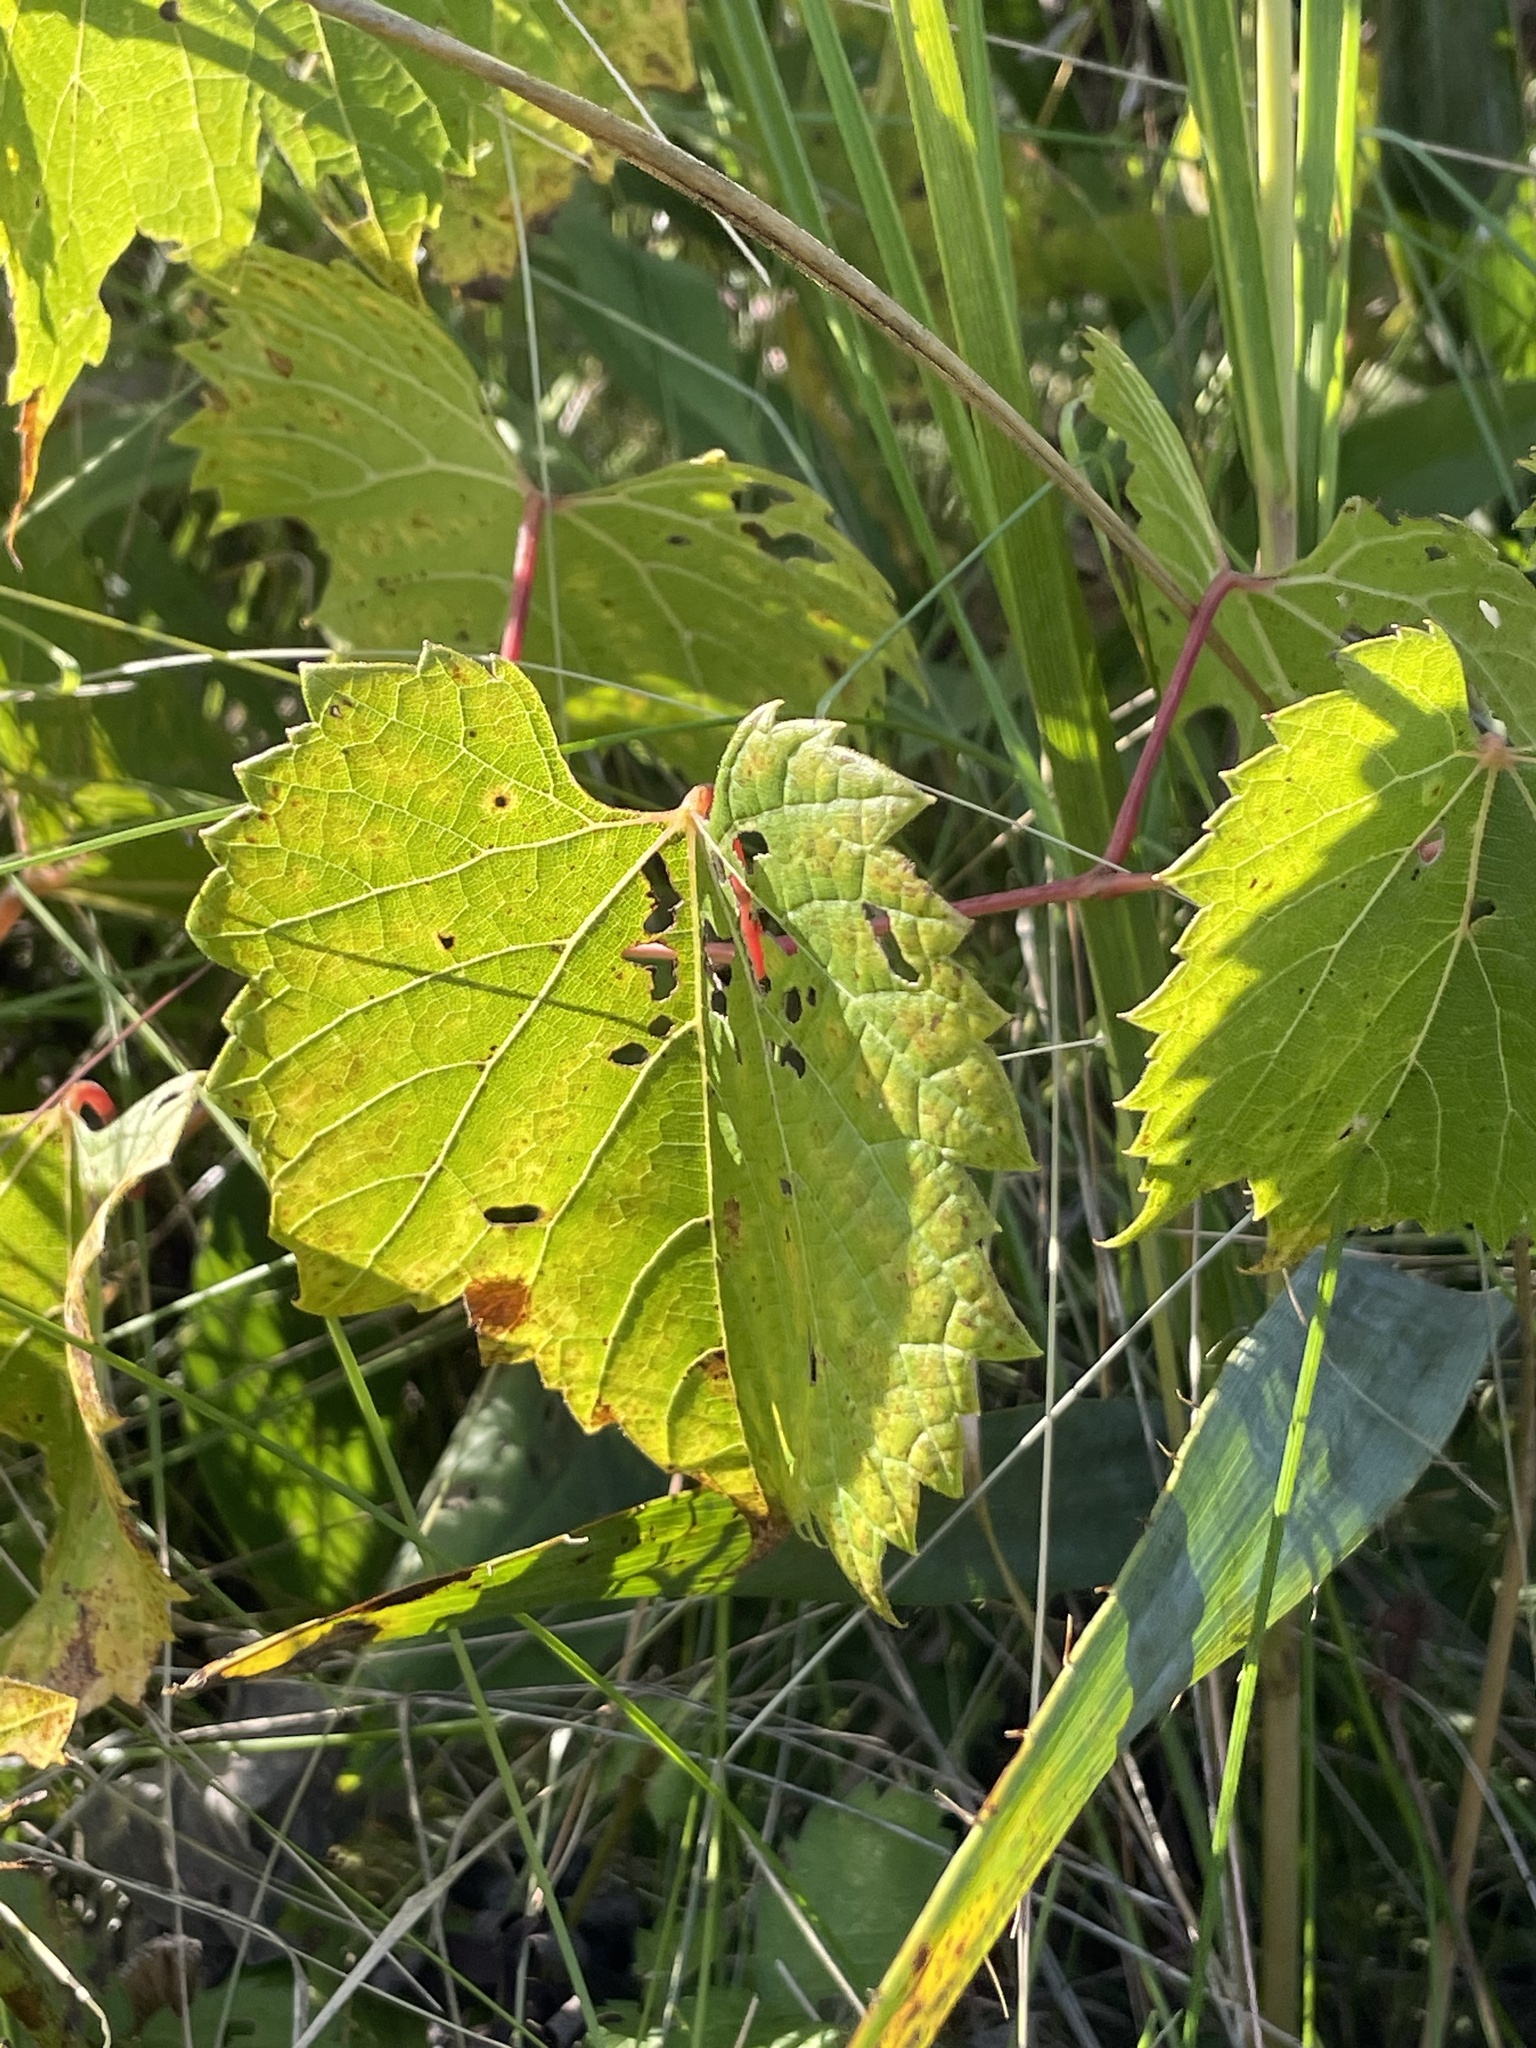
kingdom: Plantae
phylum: Tracheophyta
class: Magnoliopsida
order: Vitales
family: Vitaceae
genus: Vitis
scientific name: Vitis riparia
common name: Frost grape
